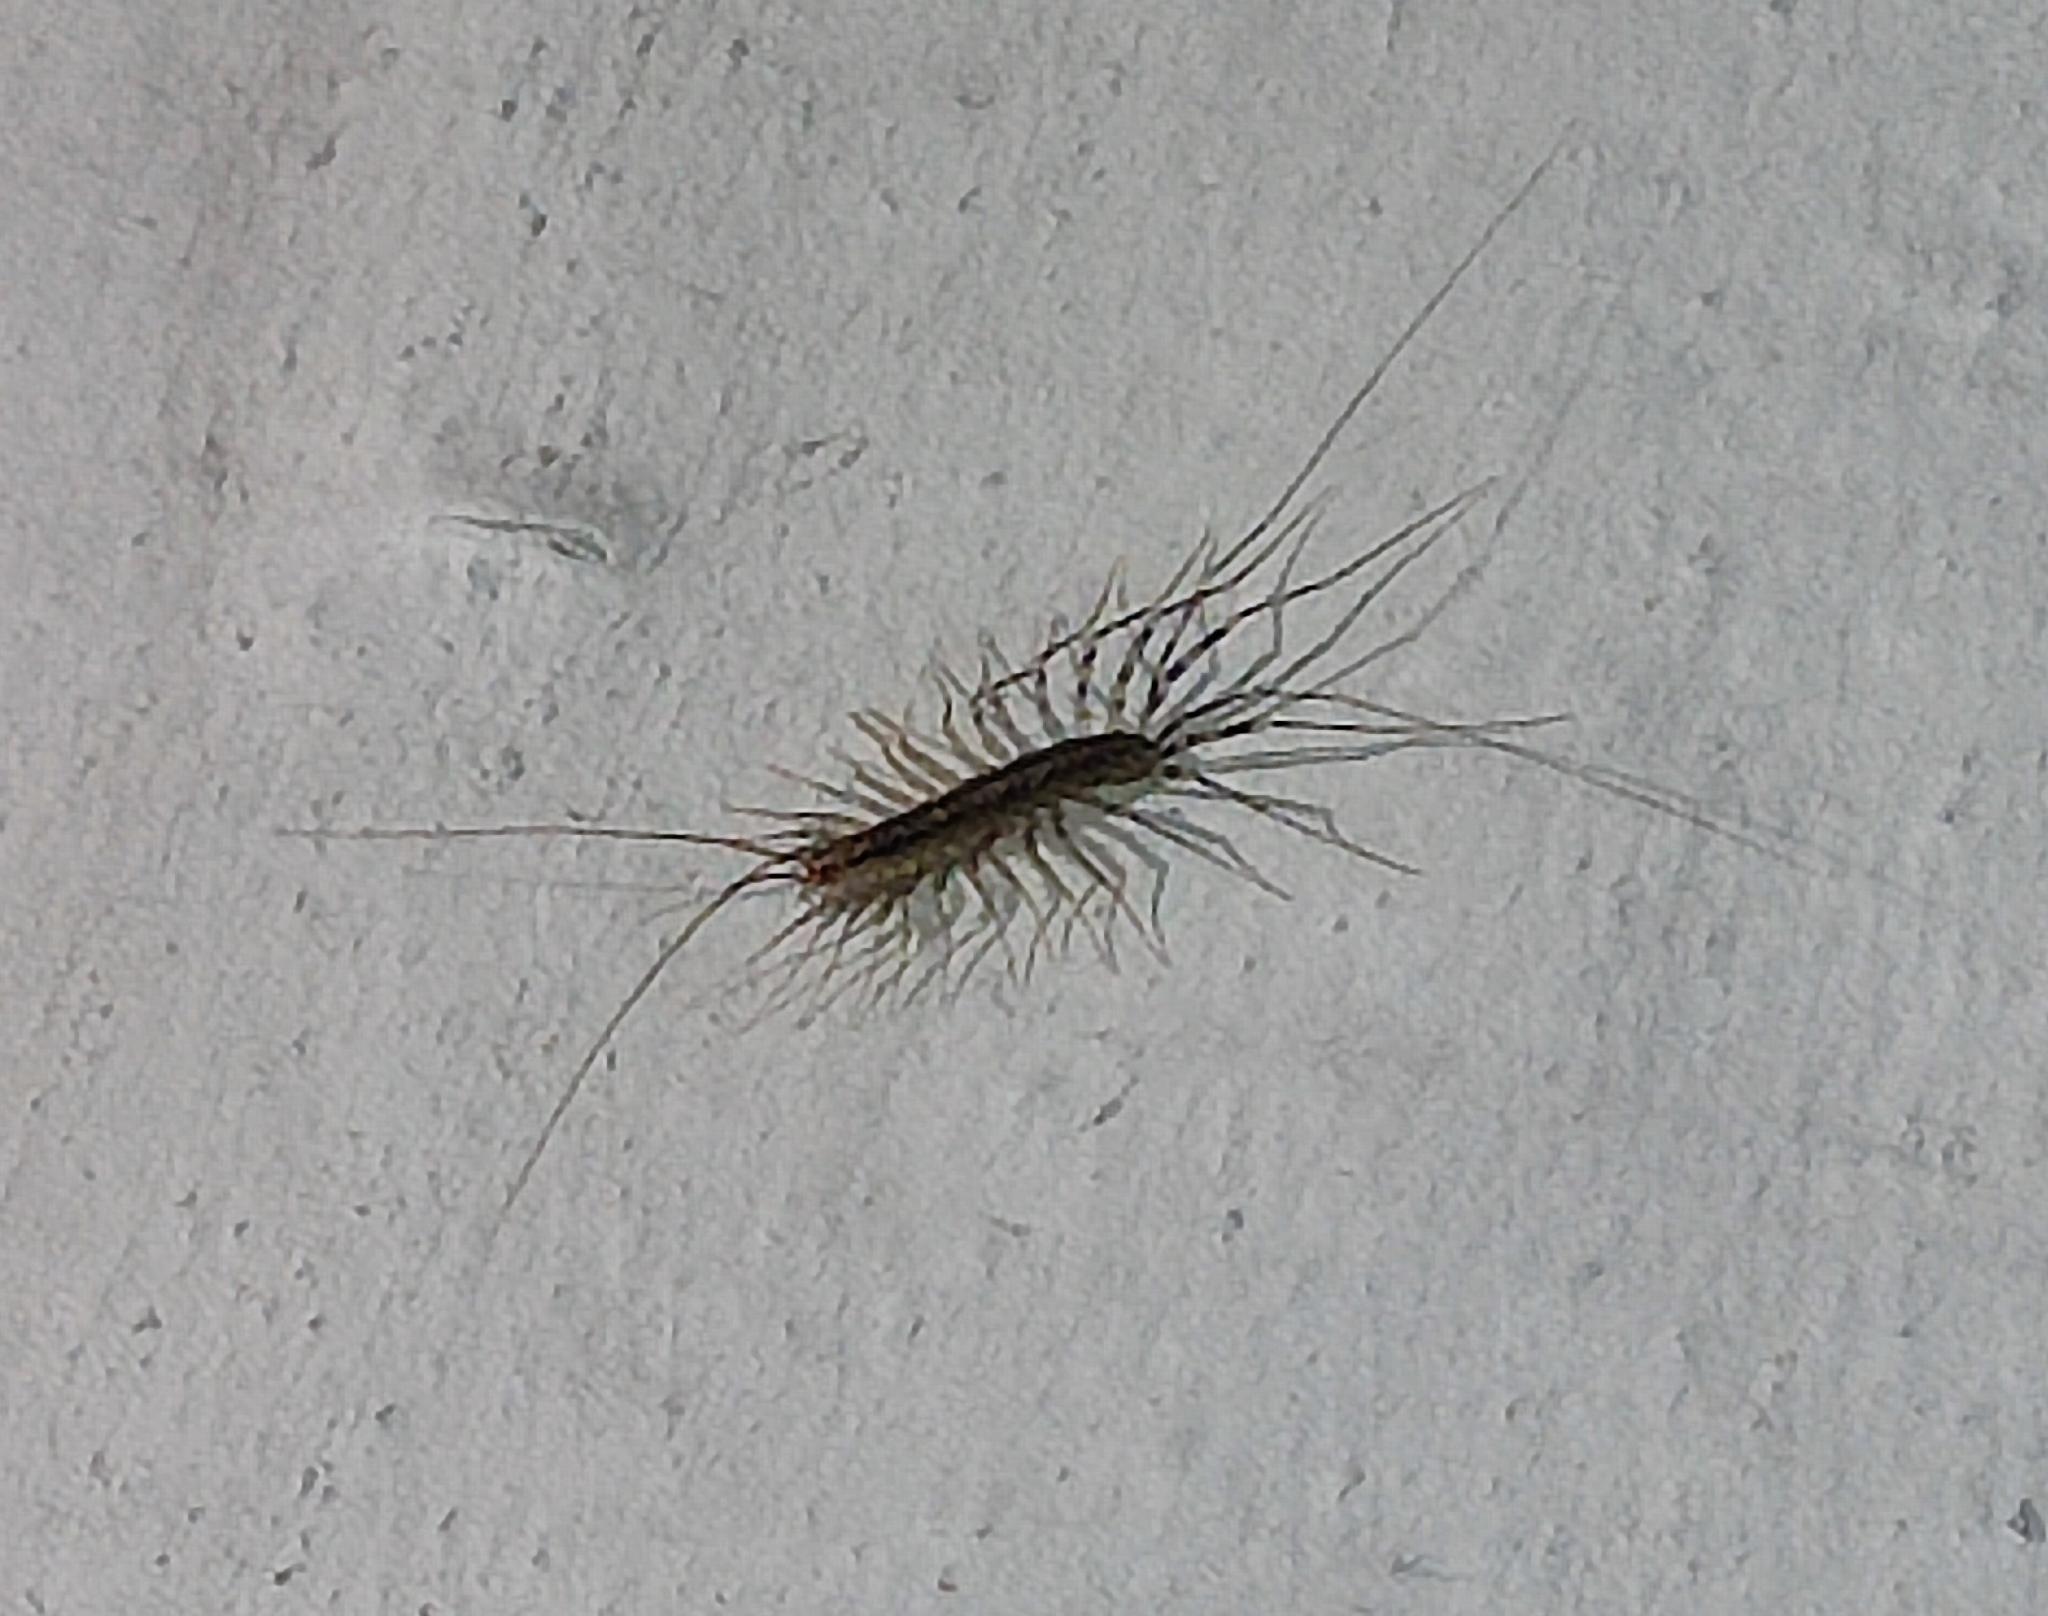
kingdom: Animalia
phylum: Arthropoda
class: Chilopoda
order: Scutigeromorpha
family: Scutigeridae
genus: Scutigera
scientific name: Scutigera coleoptrata
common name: House centipede
